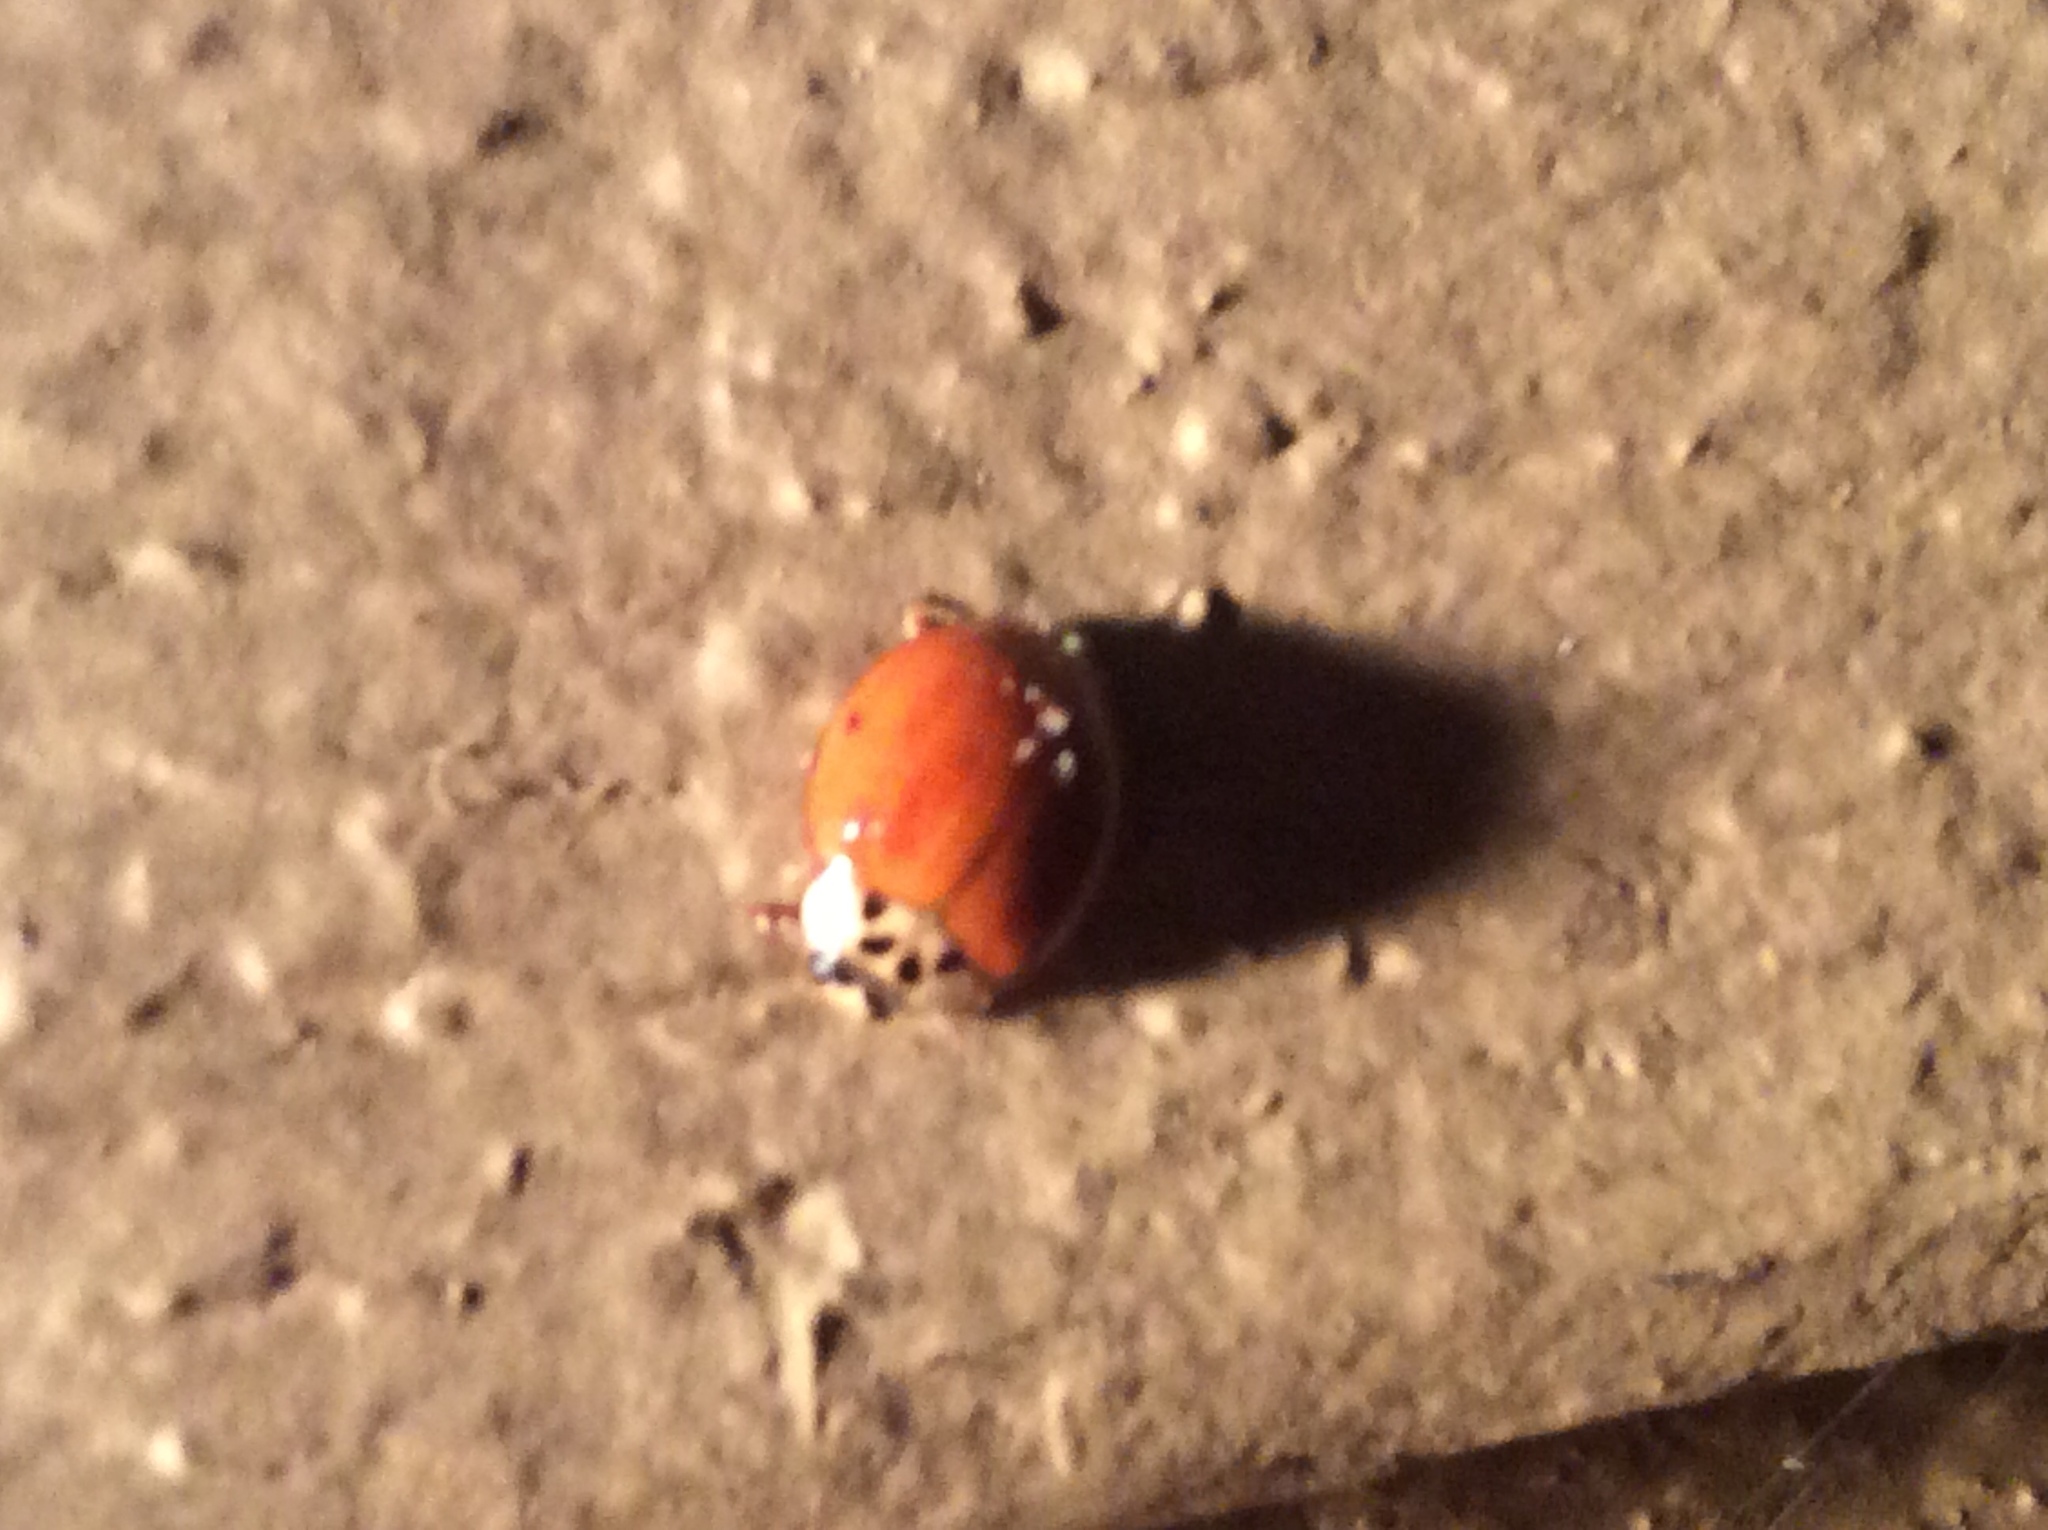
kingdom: Animalia
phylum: Arthropoda
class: Insecta
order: Coleoptera
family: Coccinellidae
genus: Harmonia
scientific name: Harmonia axyridis
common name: Harlequin ladybird
